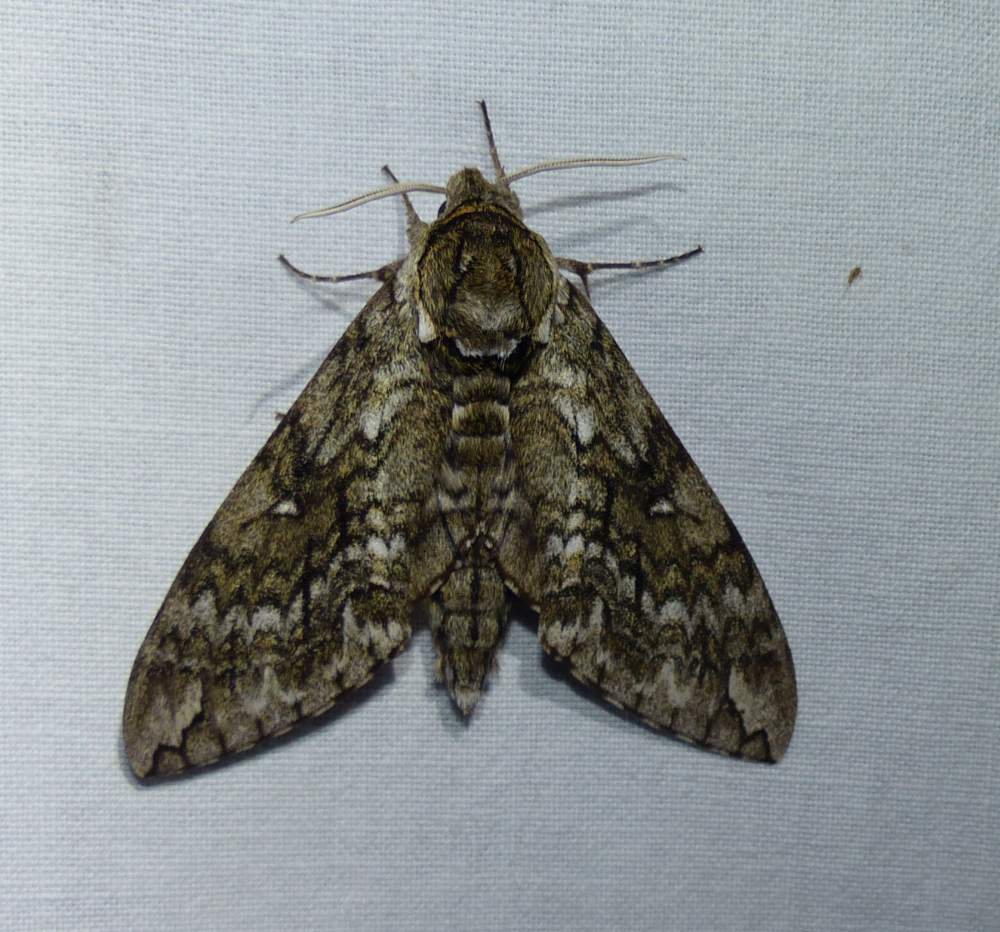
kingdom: Animalia
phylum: Arthropoda
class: Insecta
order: Lepidoptera
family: Sphingidae
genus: Ceratomia
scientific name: Ceratomia undulosa
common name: Waved sphinx
